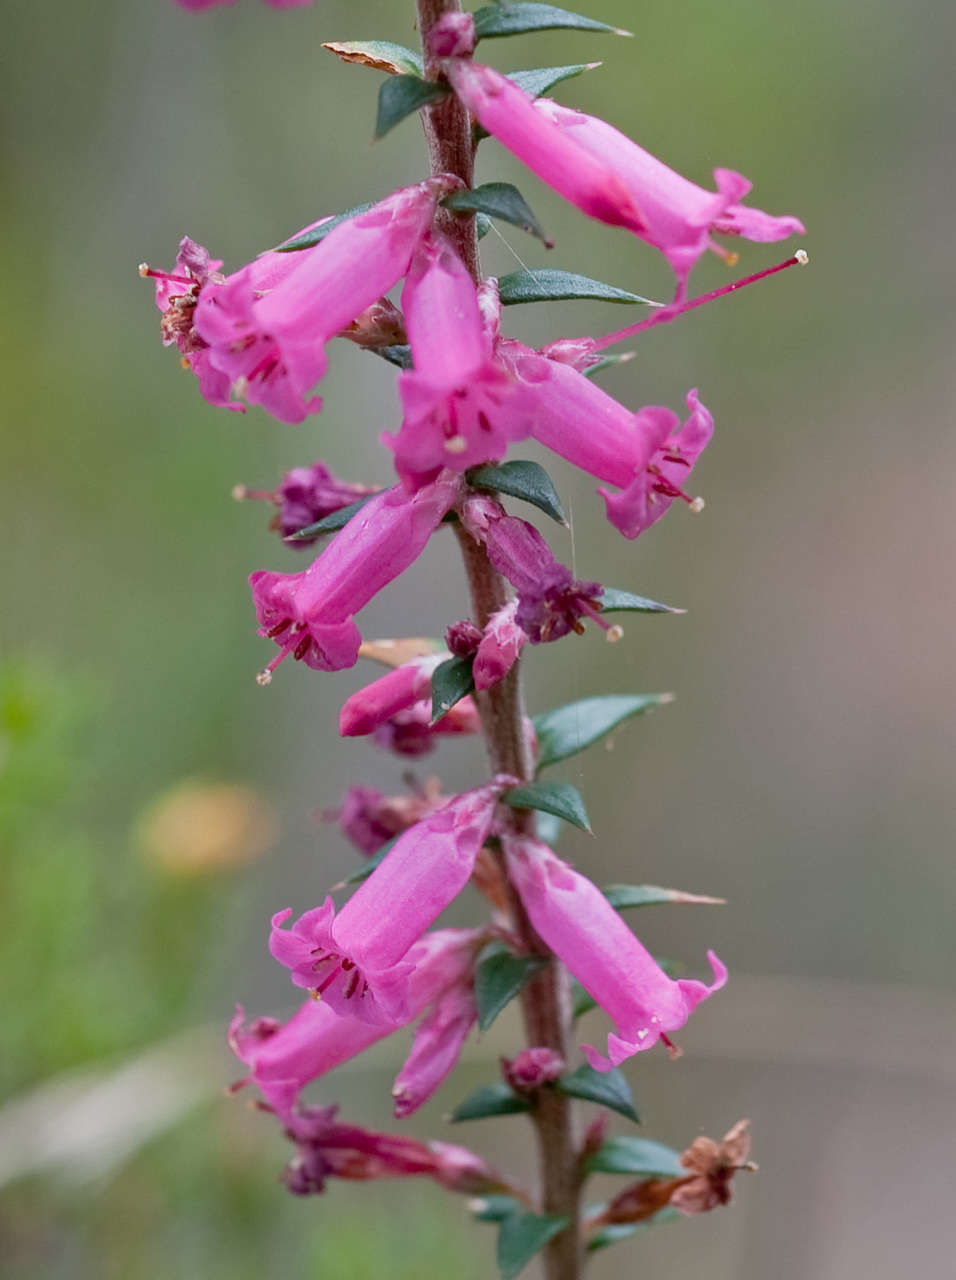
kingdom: Plantae
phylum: Tracheophyta
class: Magnoliopsida
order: Ericales
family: Ericaceae
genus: Epacris
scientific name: Epacris impressa
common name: Common-heath
